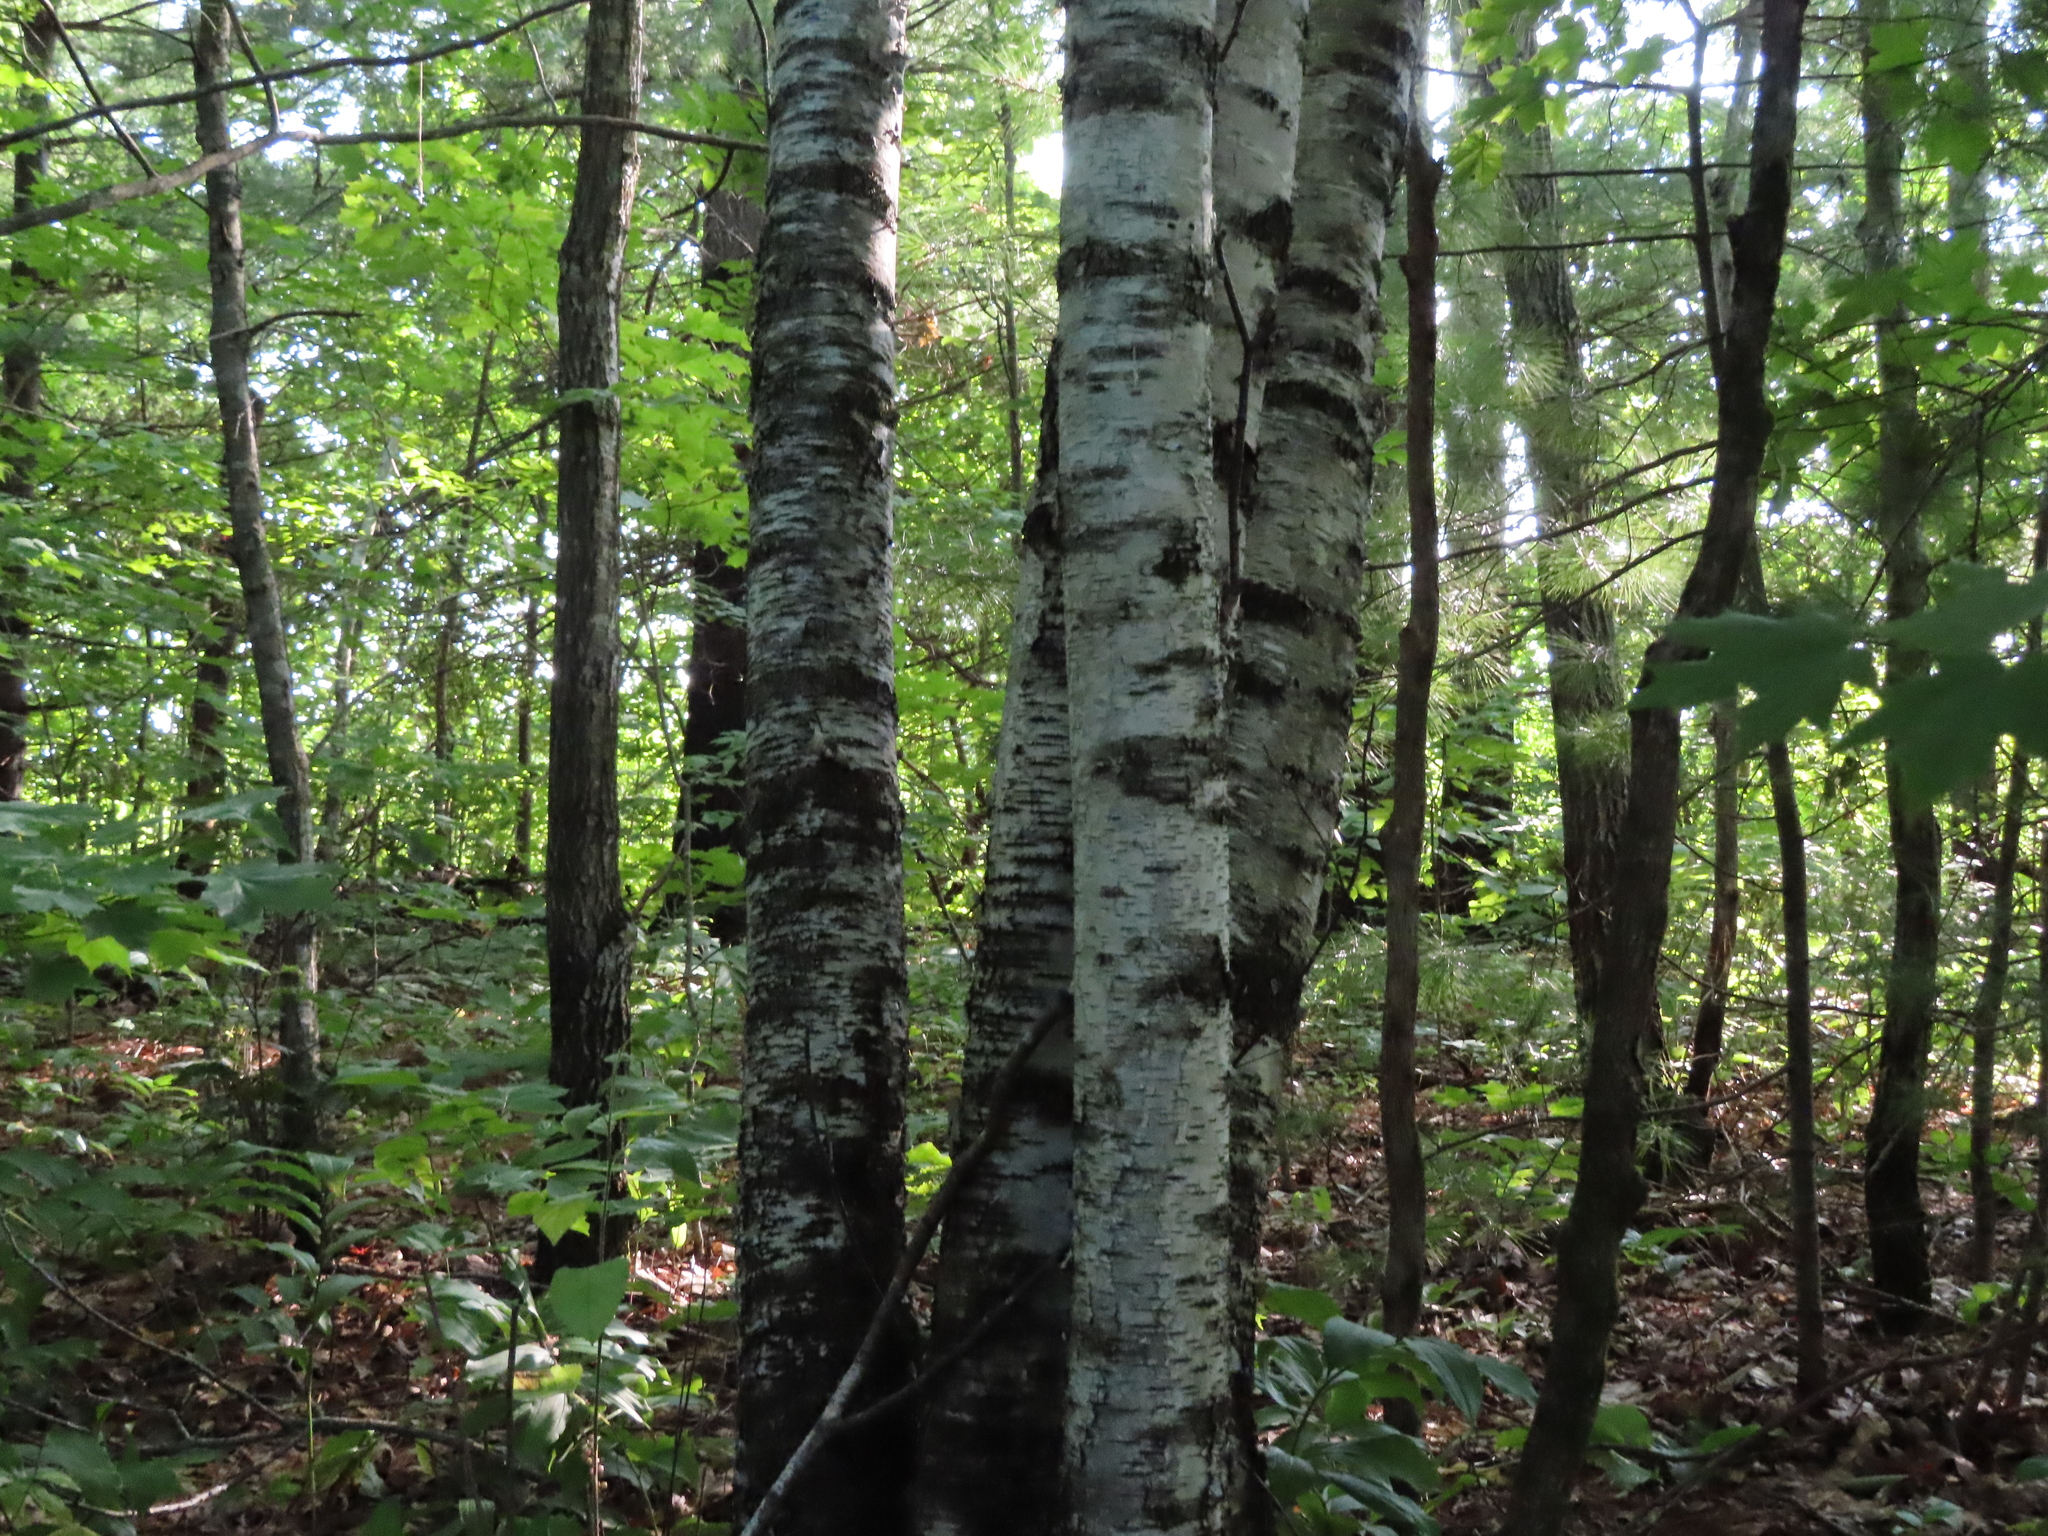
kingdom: Plantae
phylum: Tracheophyta
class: Magnoliopsida
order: Fagales
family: Betulaceae
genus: Betula
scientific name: Betula papyrifera
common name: Paper birch
